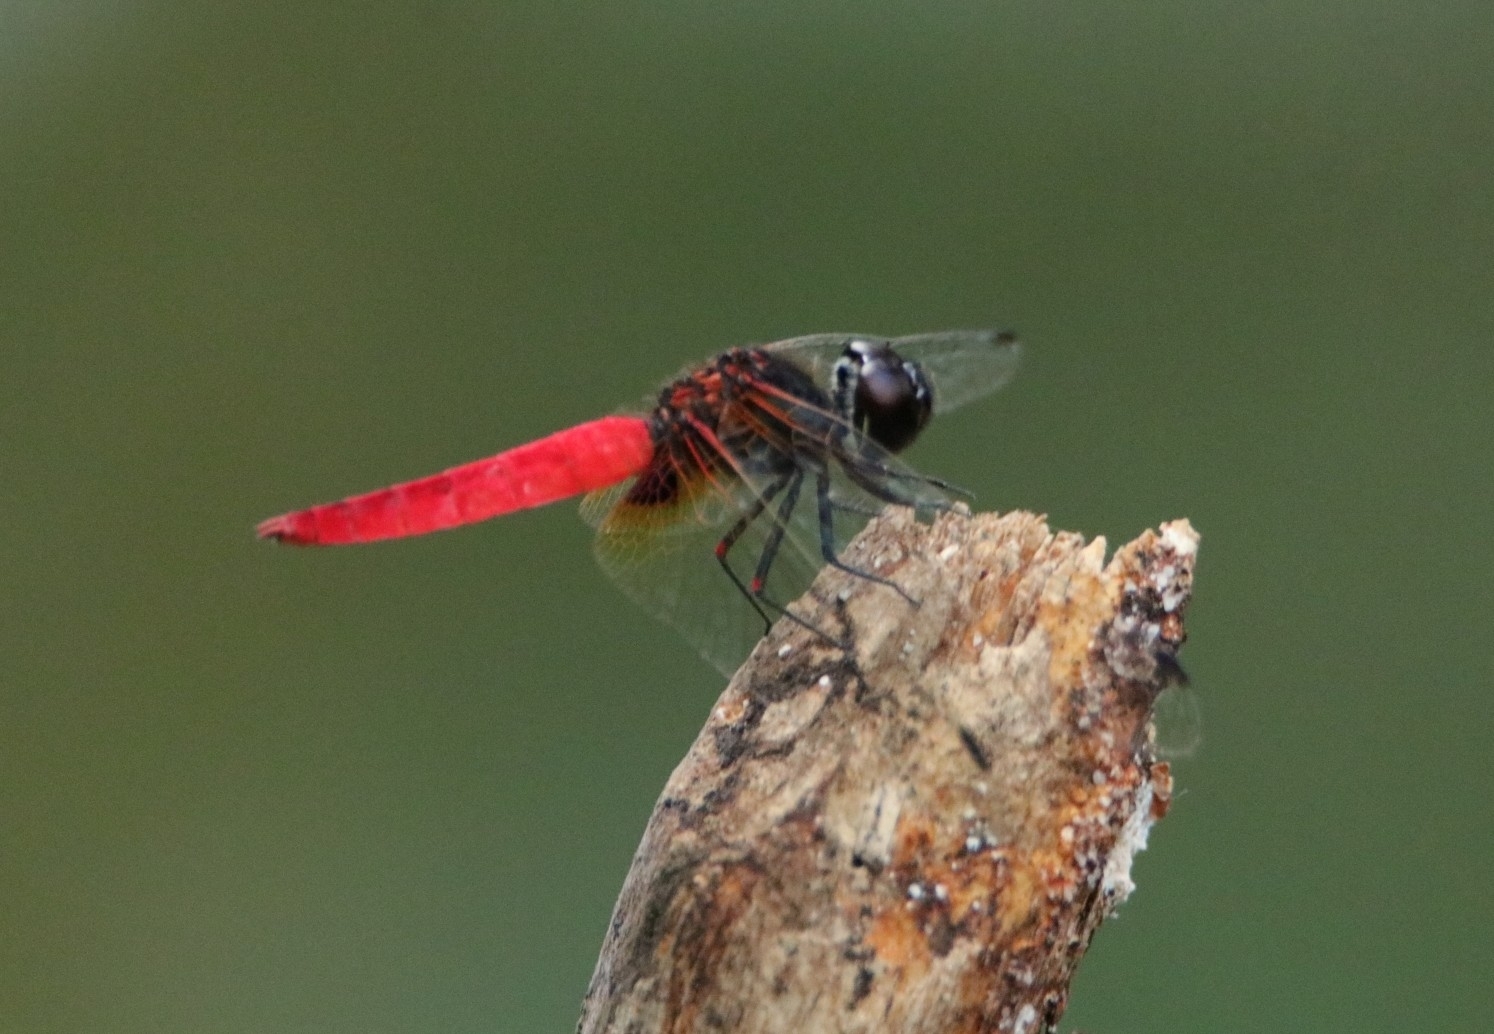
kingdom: Animalia
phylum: Arthropoda
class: Insecta
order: Odonata
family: Libellulidae
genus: Aethriamanta
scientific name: Aethriamanta brevipennis
